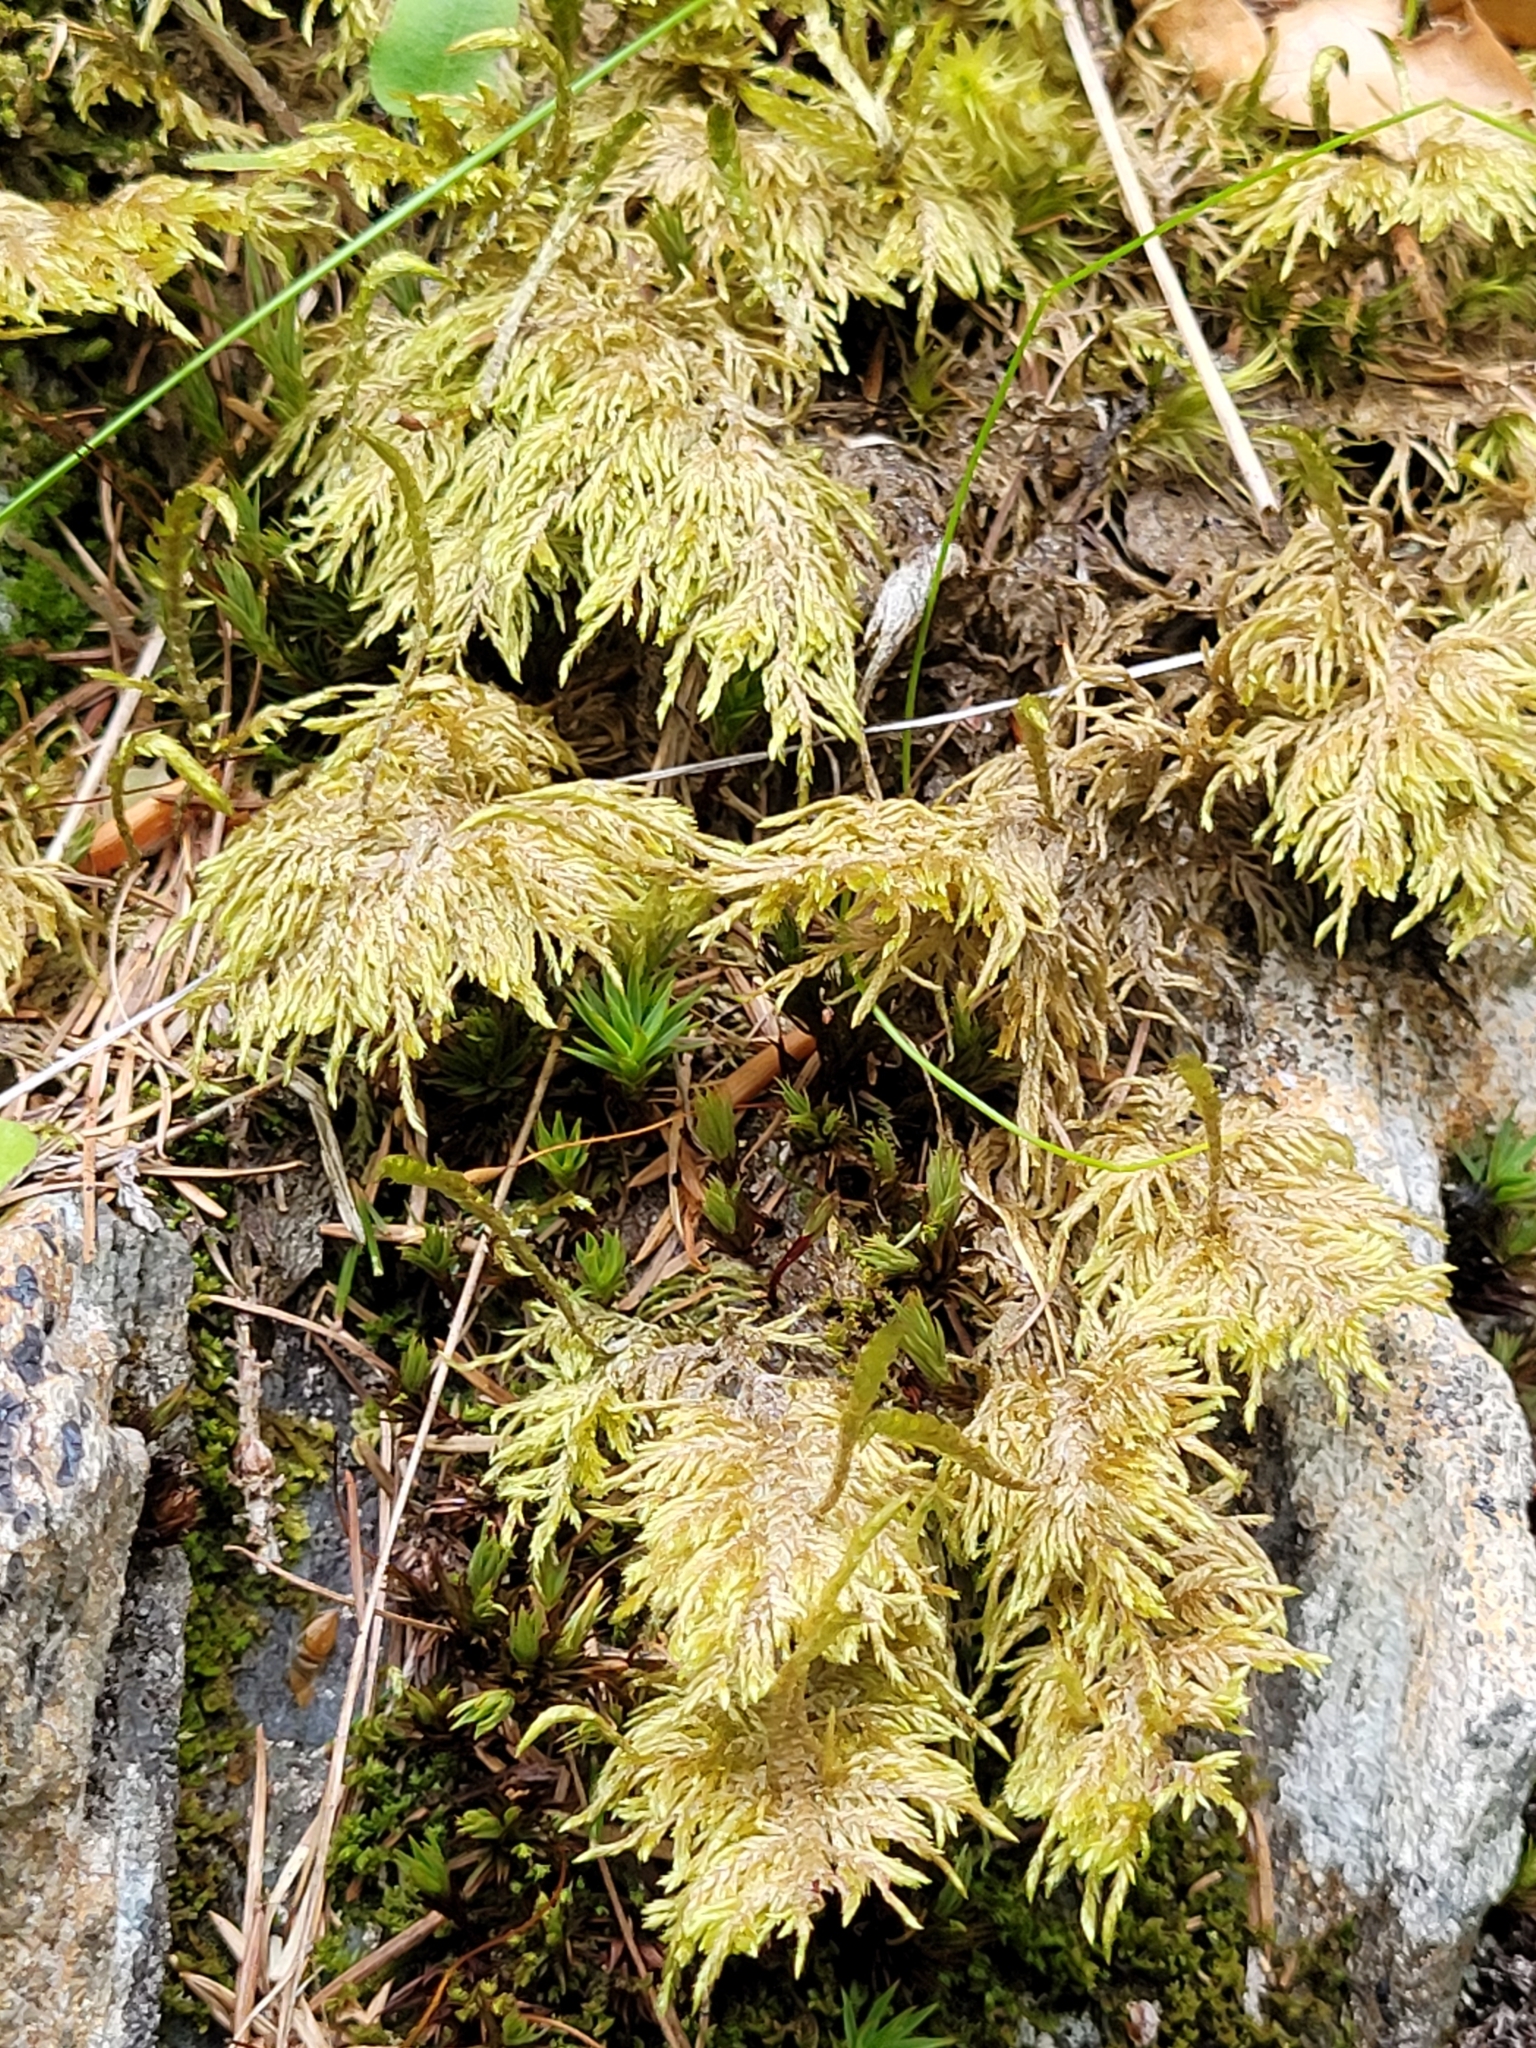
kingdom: Plantae
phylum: Bryophyta
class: Bryopsida
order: Hypnales
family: Hylocomiaceae
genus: Hylocomium
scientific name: Hylocomium splendens
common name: Stairstep moss
